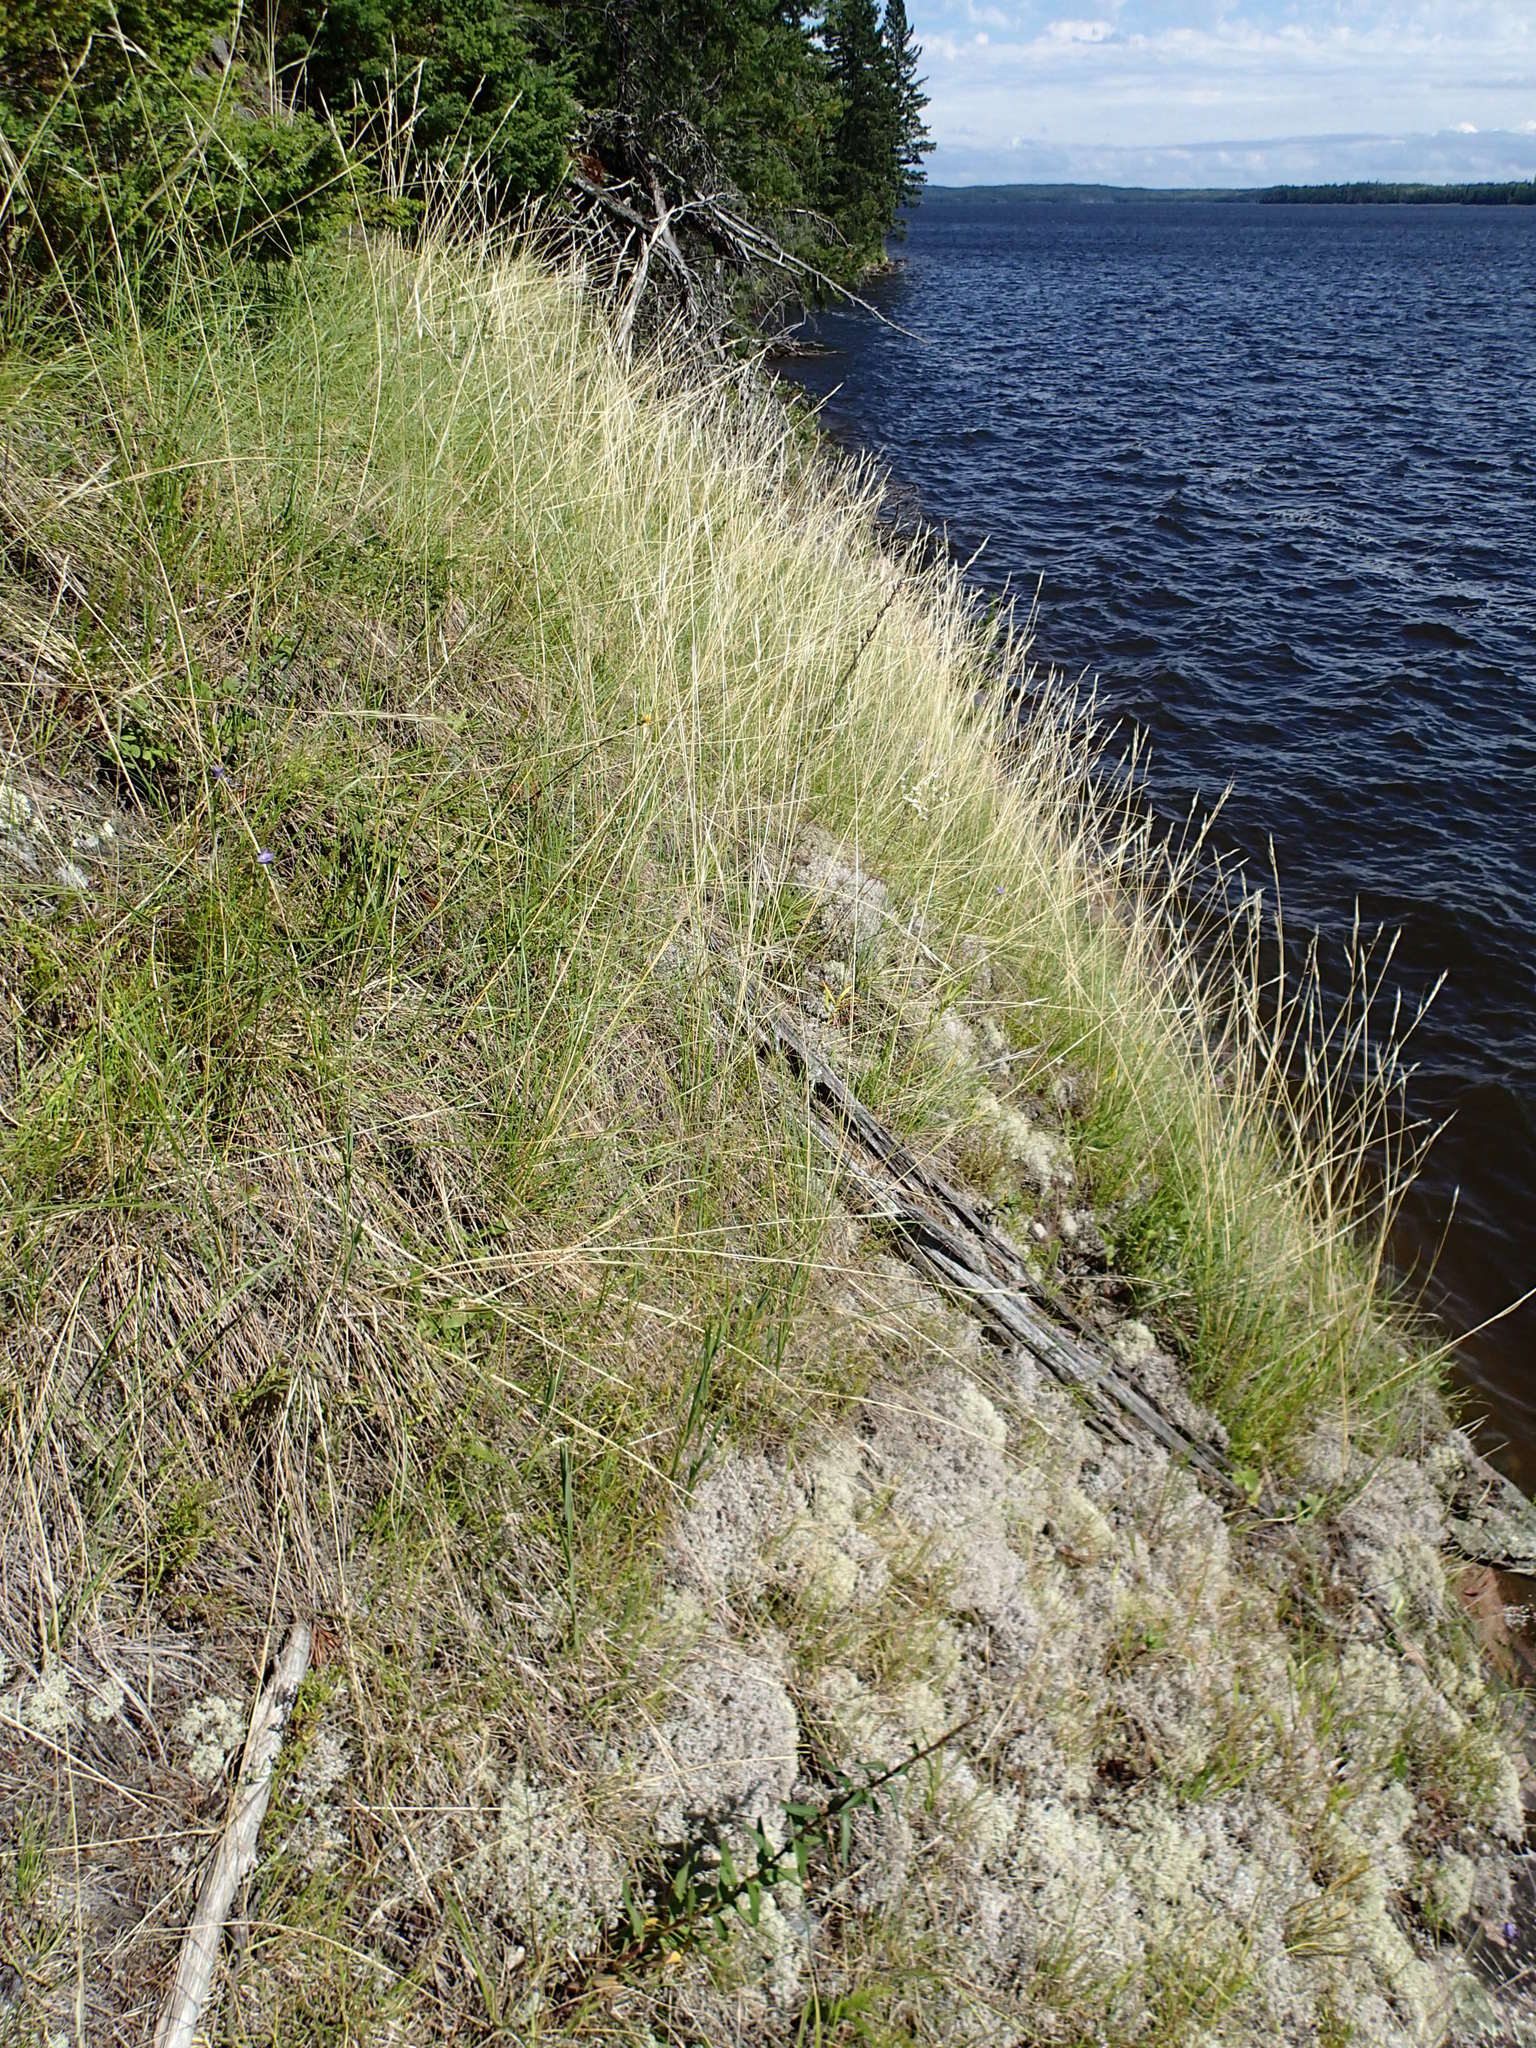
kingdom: Plantae
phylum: Tracheophyta
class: Liliopsida
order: Poales
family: Poaceae
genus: Hesperostipa
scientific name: Hesperostipa spartea
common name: Porcupine grass
